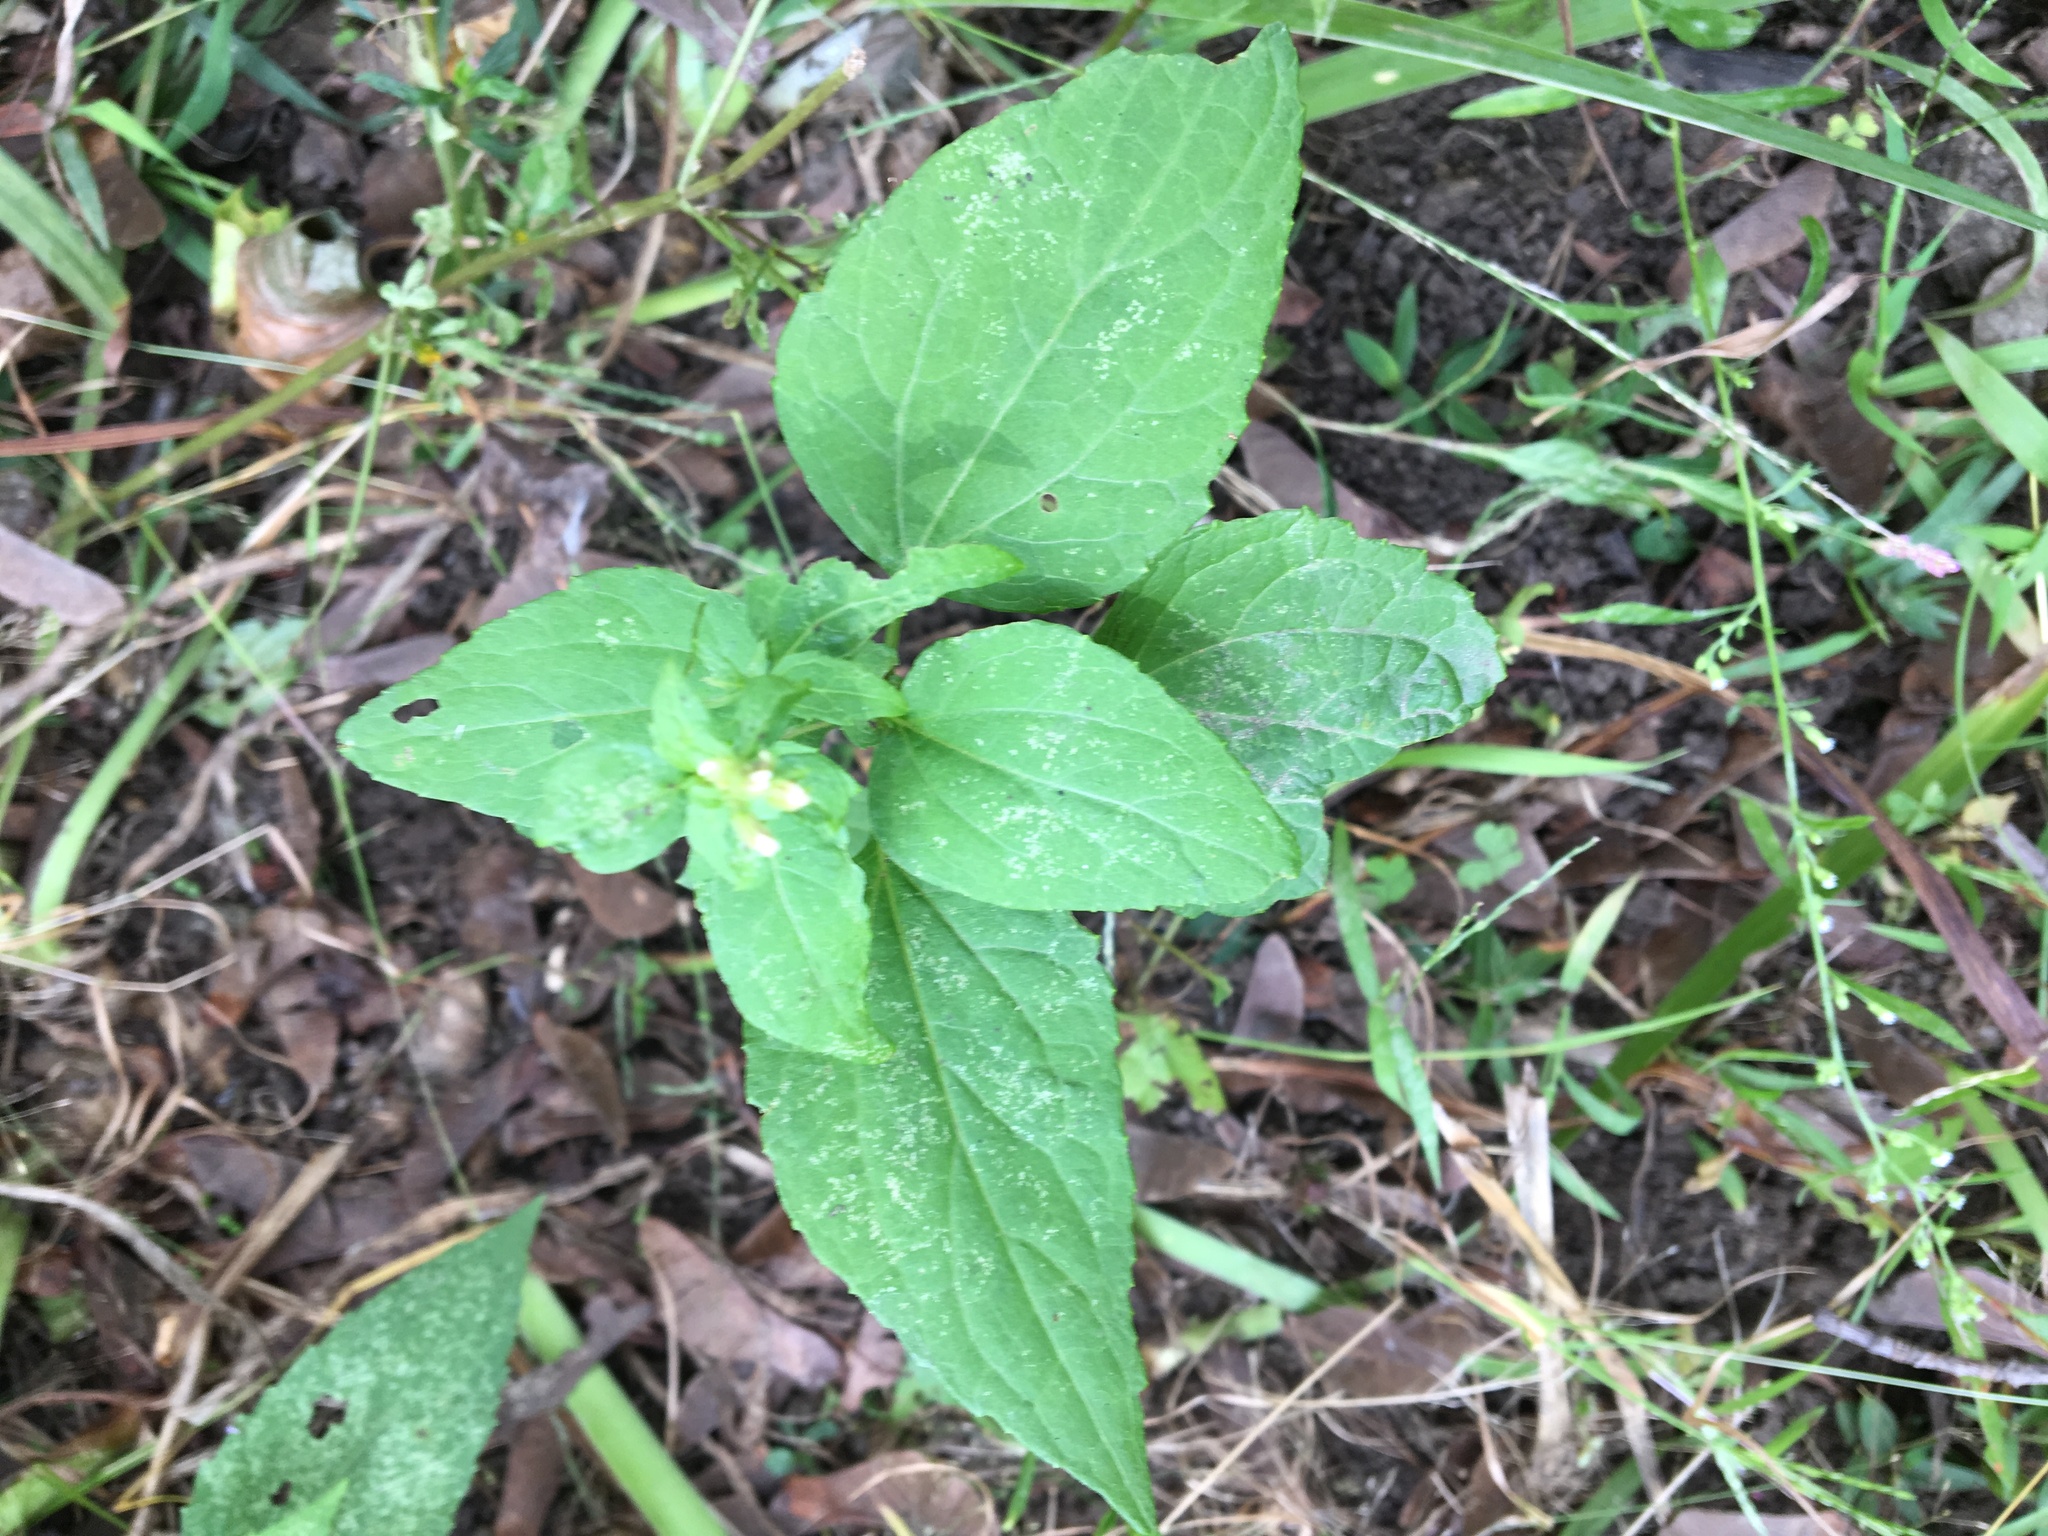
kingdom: Plantae
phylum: Tracheophyta
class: Magnoliopsida
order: Asterales
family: Asteraceae
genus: Galinsoga
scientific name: Galinsoga quadriradiata
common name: Shaggy soldier
